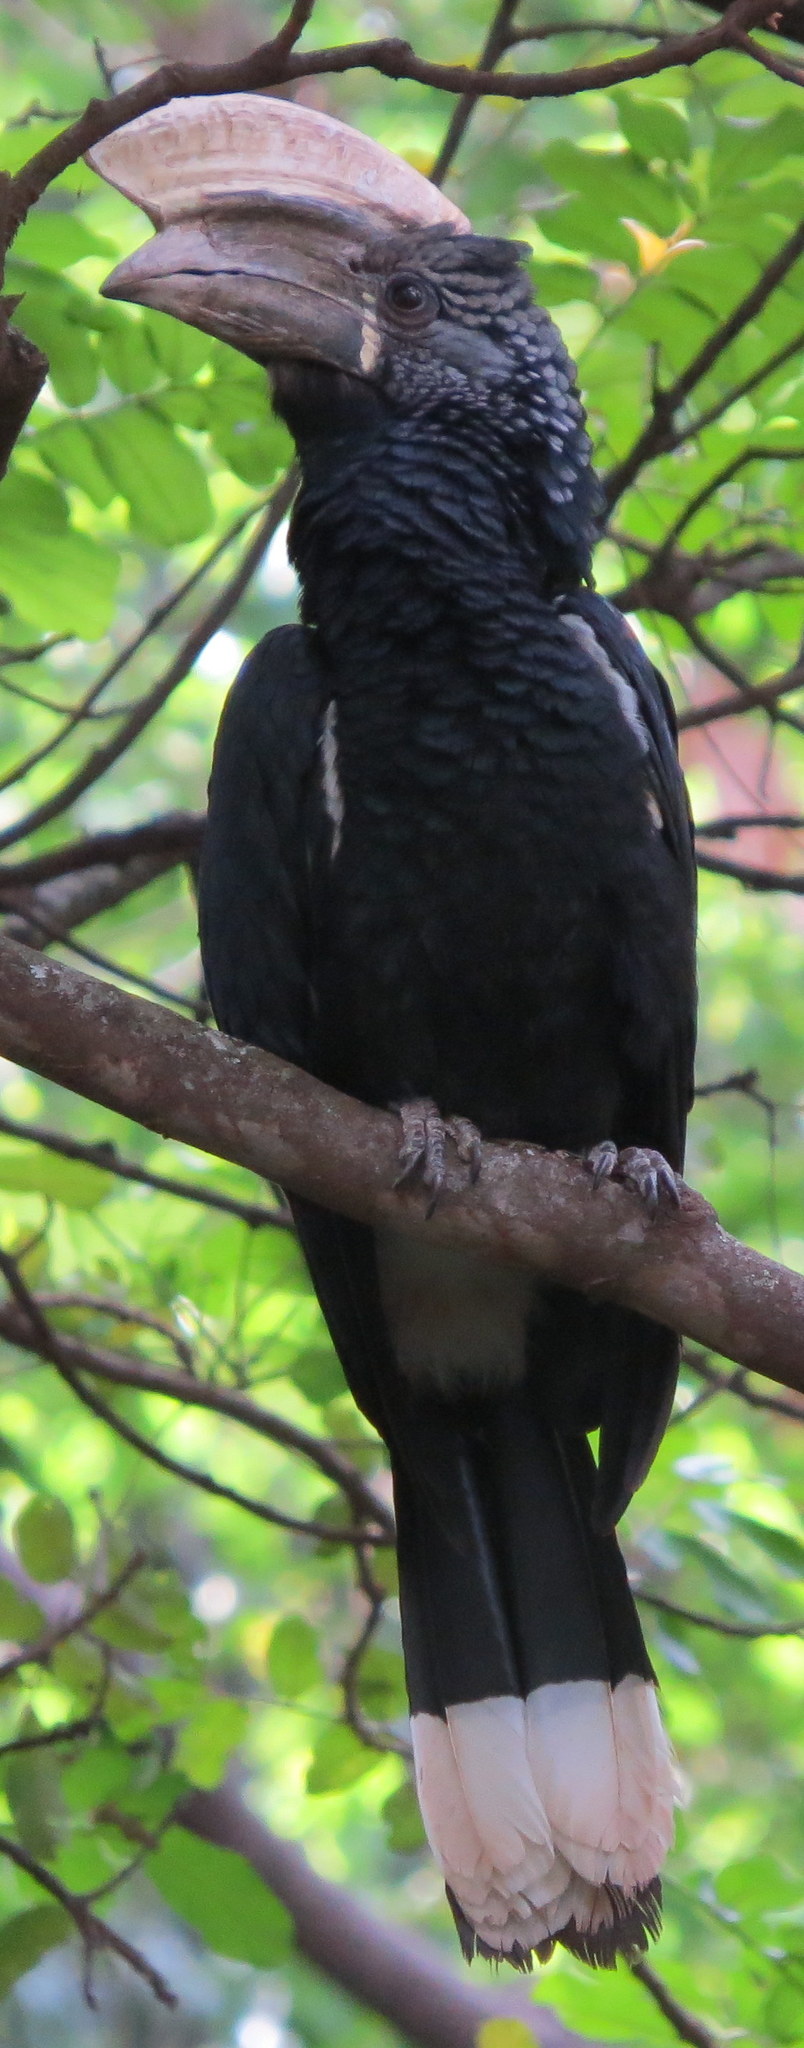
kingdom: Animalia
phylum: Chordata
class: Aves
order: Bucerotiformes
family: Bucerotidae
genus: Bycanistes
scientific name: Bycanistes brevis
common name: Silvery-cheeked hornbill
